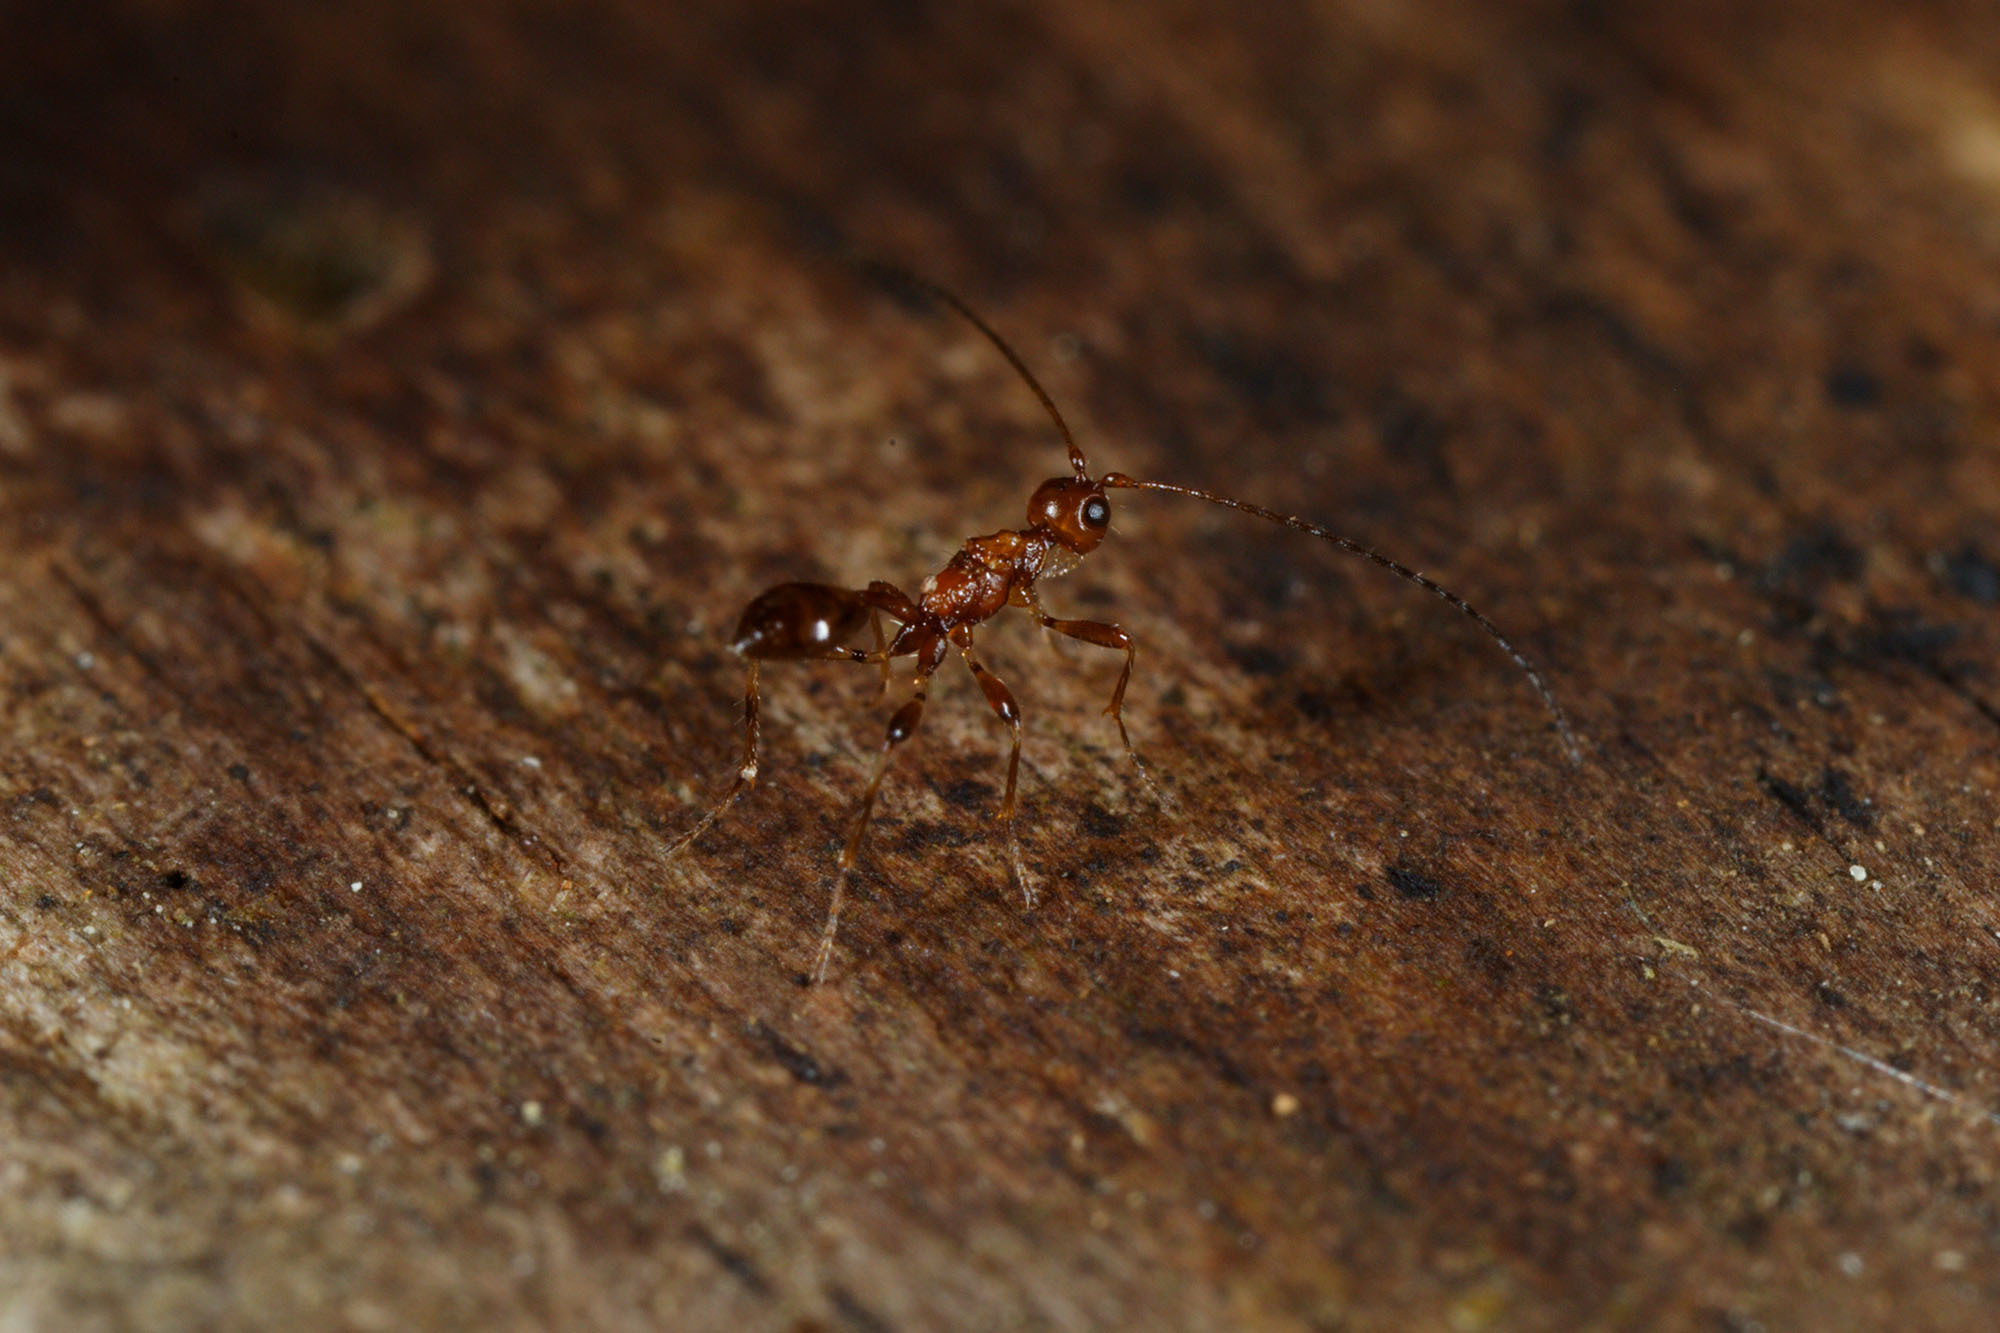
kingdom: Animalia
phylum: Arthropoda
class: Insecta
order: Hymenoptera
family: Braconidae
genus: Spathius
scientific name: Spathius thorpei
